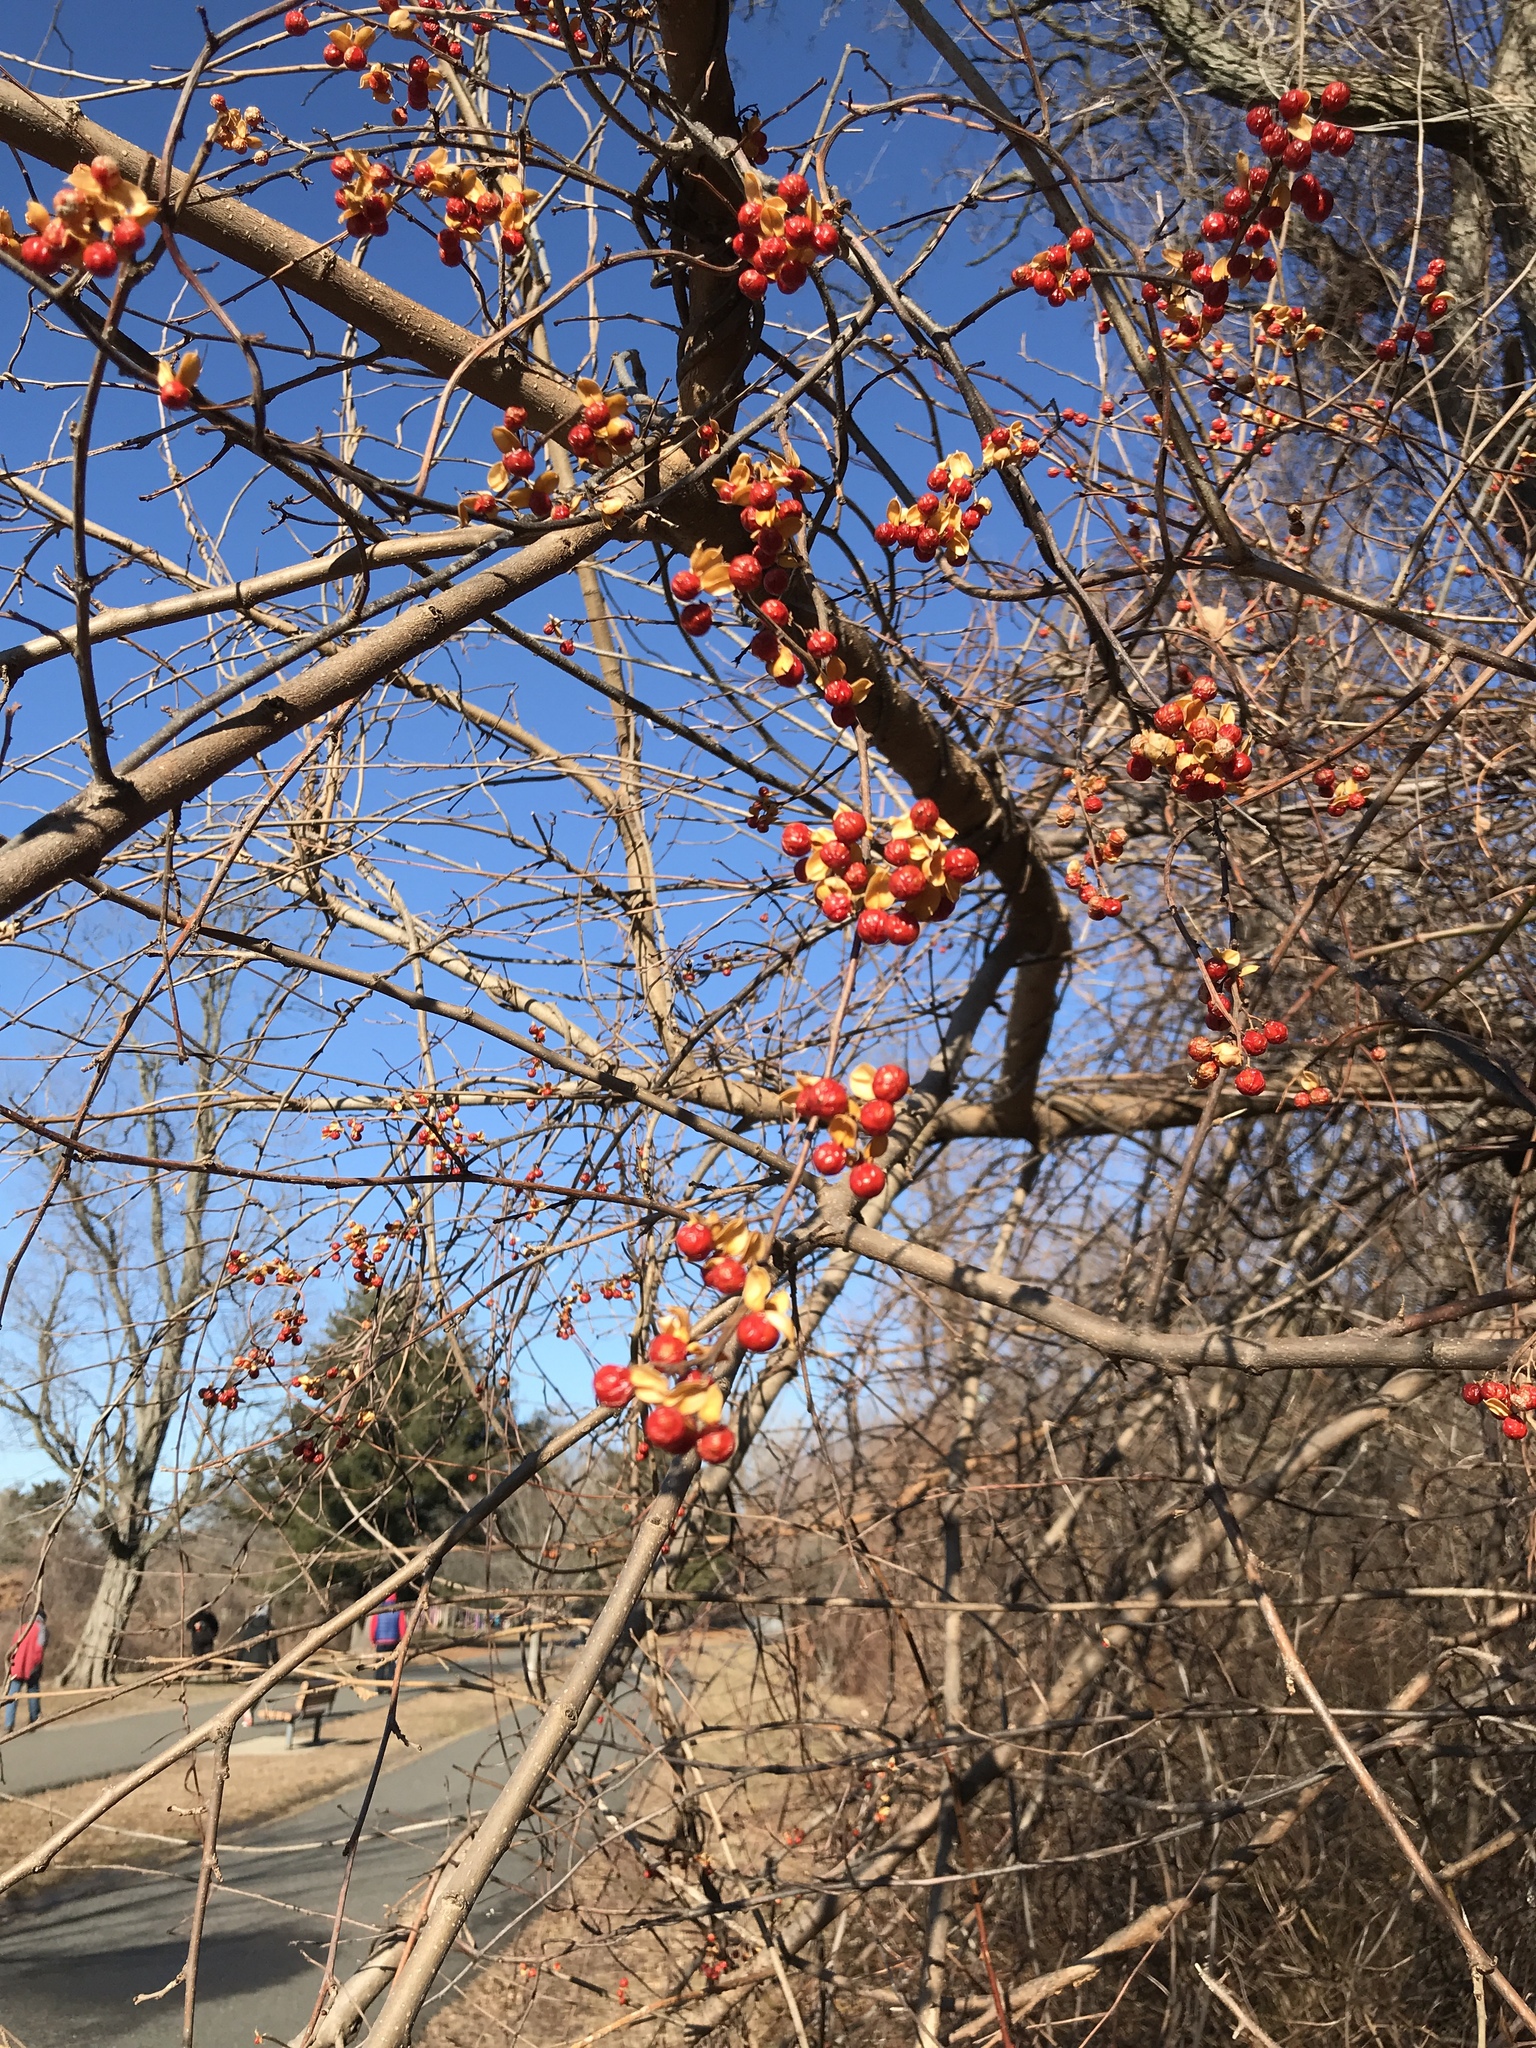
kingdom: Plantae
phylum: Tracheophyta
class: Magnoliopsida
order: Celastrales
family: Celastraceae
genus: Celastrus
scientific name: Celastrus orbiculatus
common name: Oriental bittersweet
